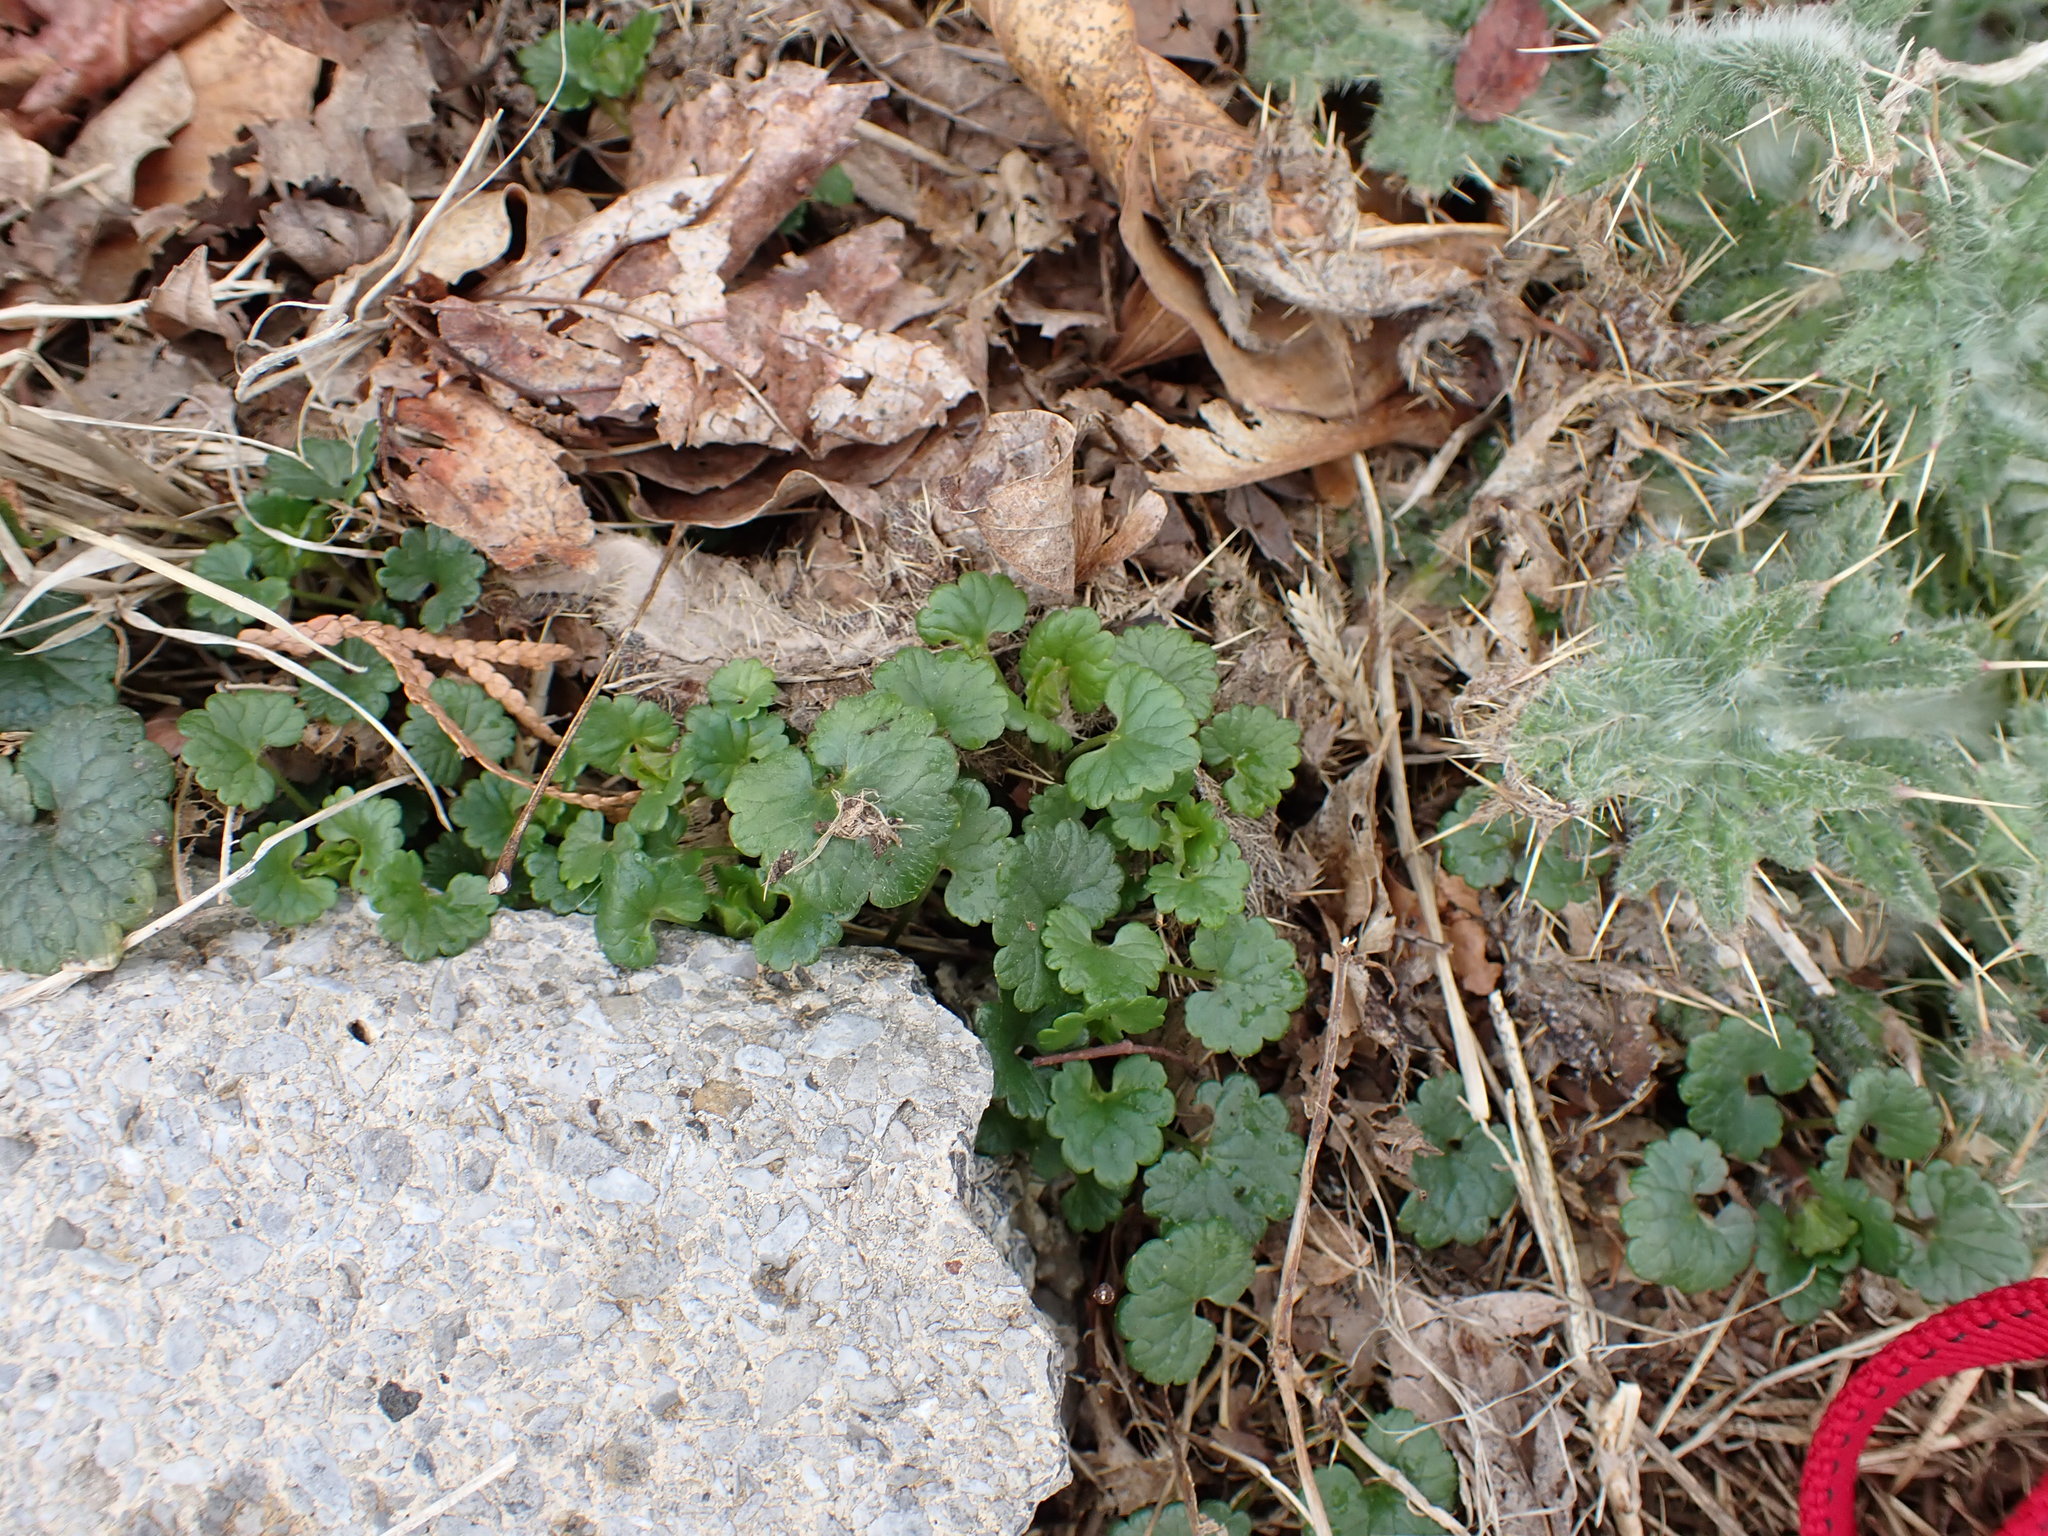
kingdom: Plantae
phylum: Tracheophyta
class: Magnoliopsida
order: Lamiales
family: Lamiaceae
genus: Glechoma
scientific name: Glechoma hederacea
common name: Ground ivy
